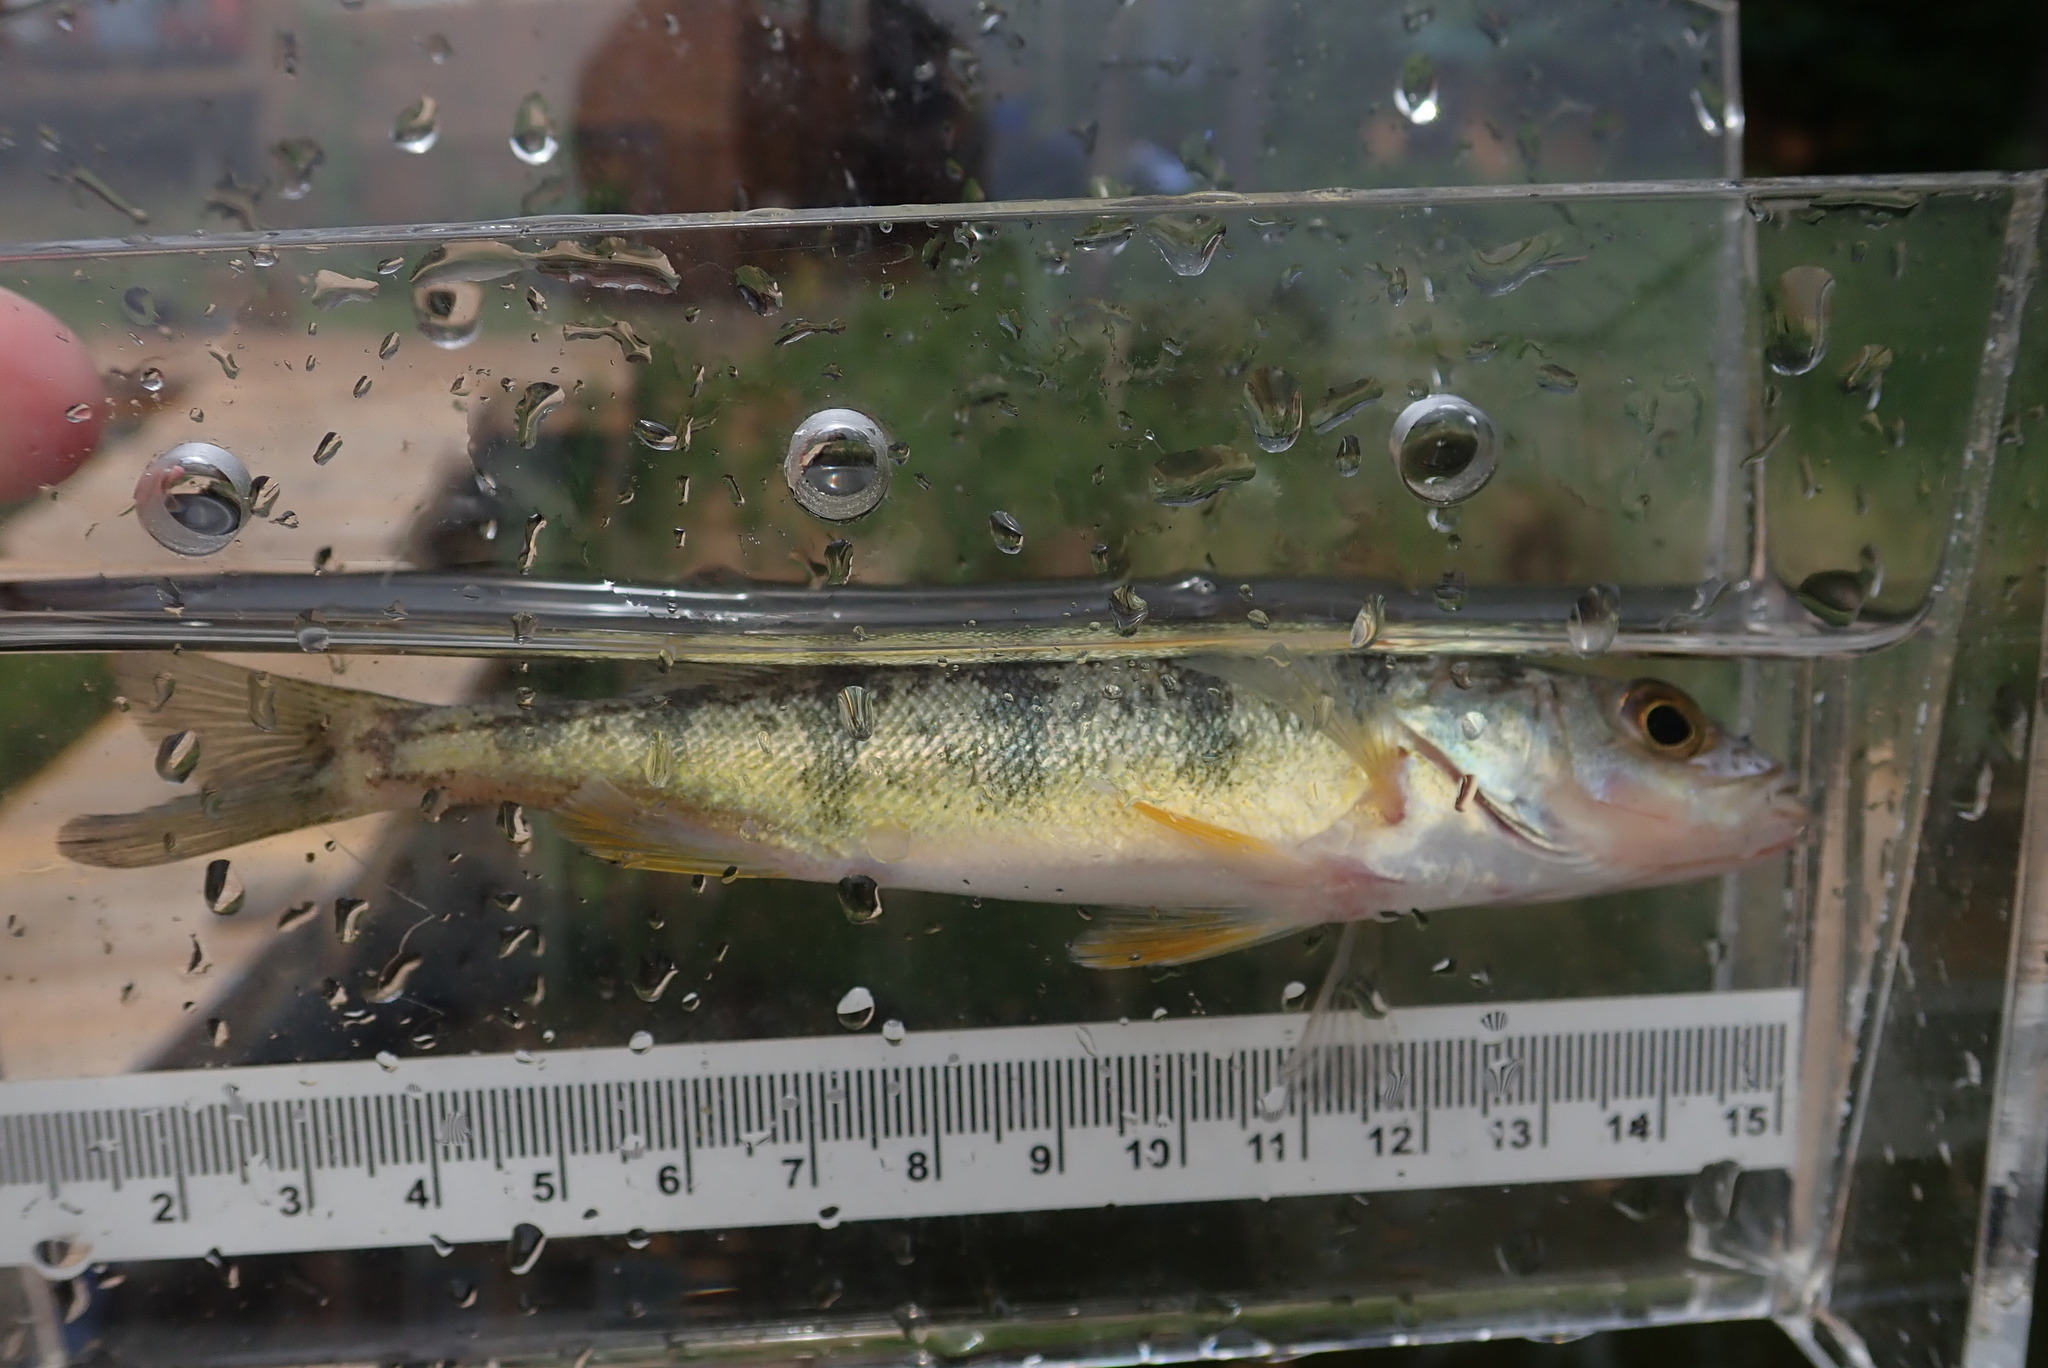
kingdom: Animalia
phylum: Chordata
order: Perciformes
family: Percidae
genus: Perca
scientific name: Perca flavescens
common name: Yellow perch
